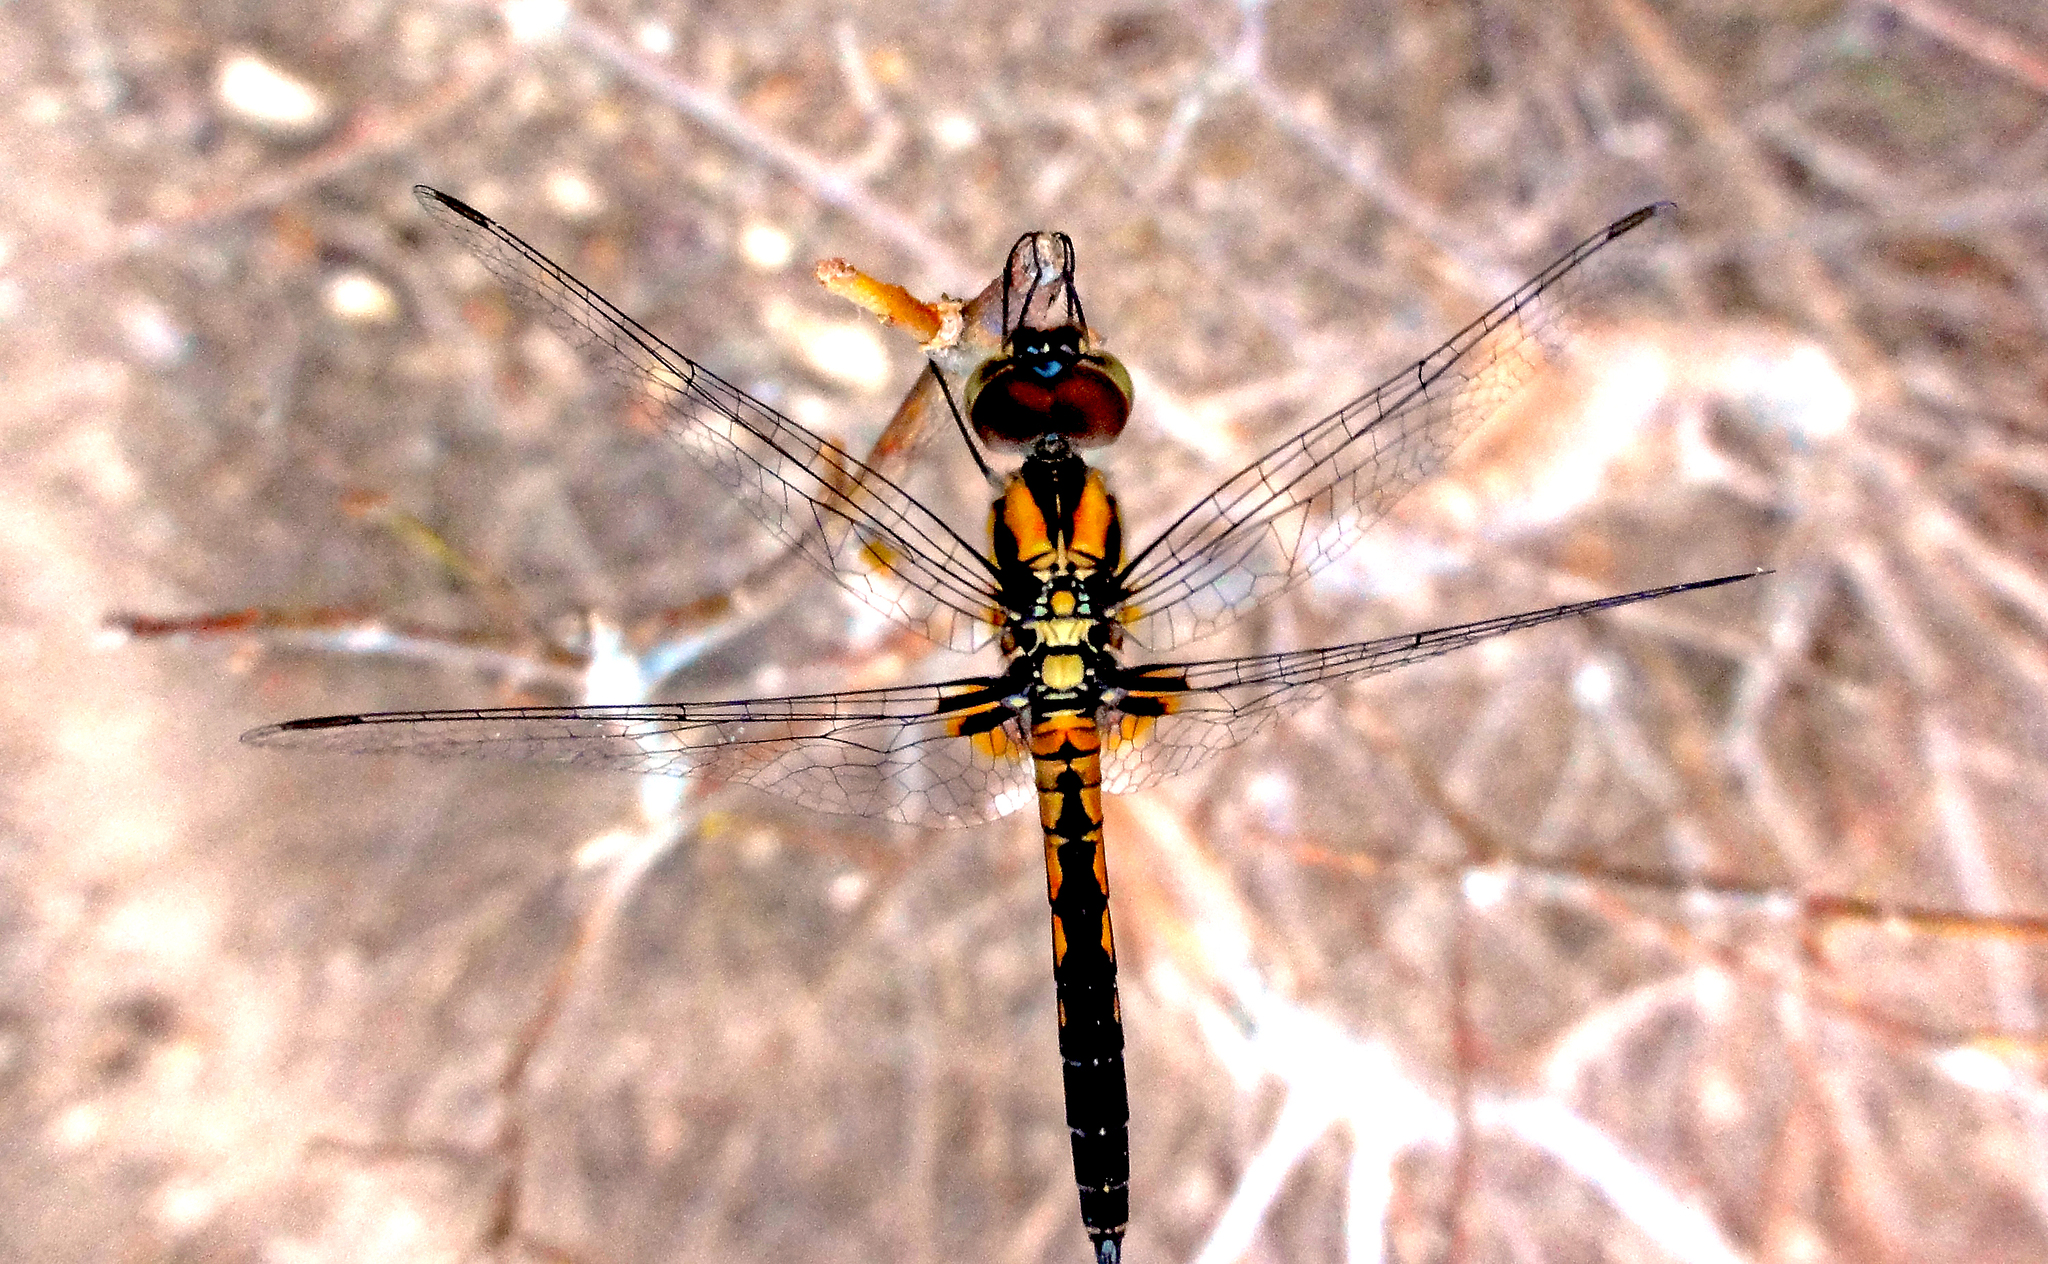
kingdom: Animalia
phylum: Arthropoda
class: Insecta
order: Odonata
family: Libellulidae
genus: Aethriamanta
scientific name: Aethriamanta aethra
